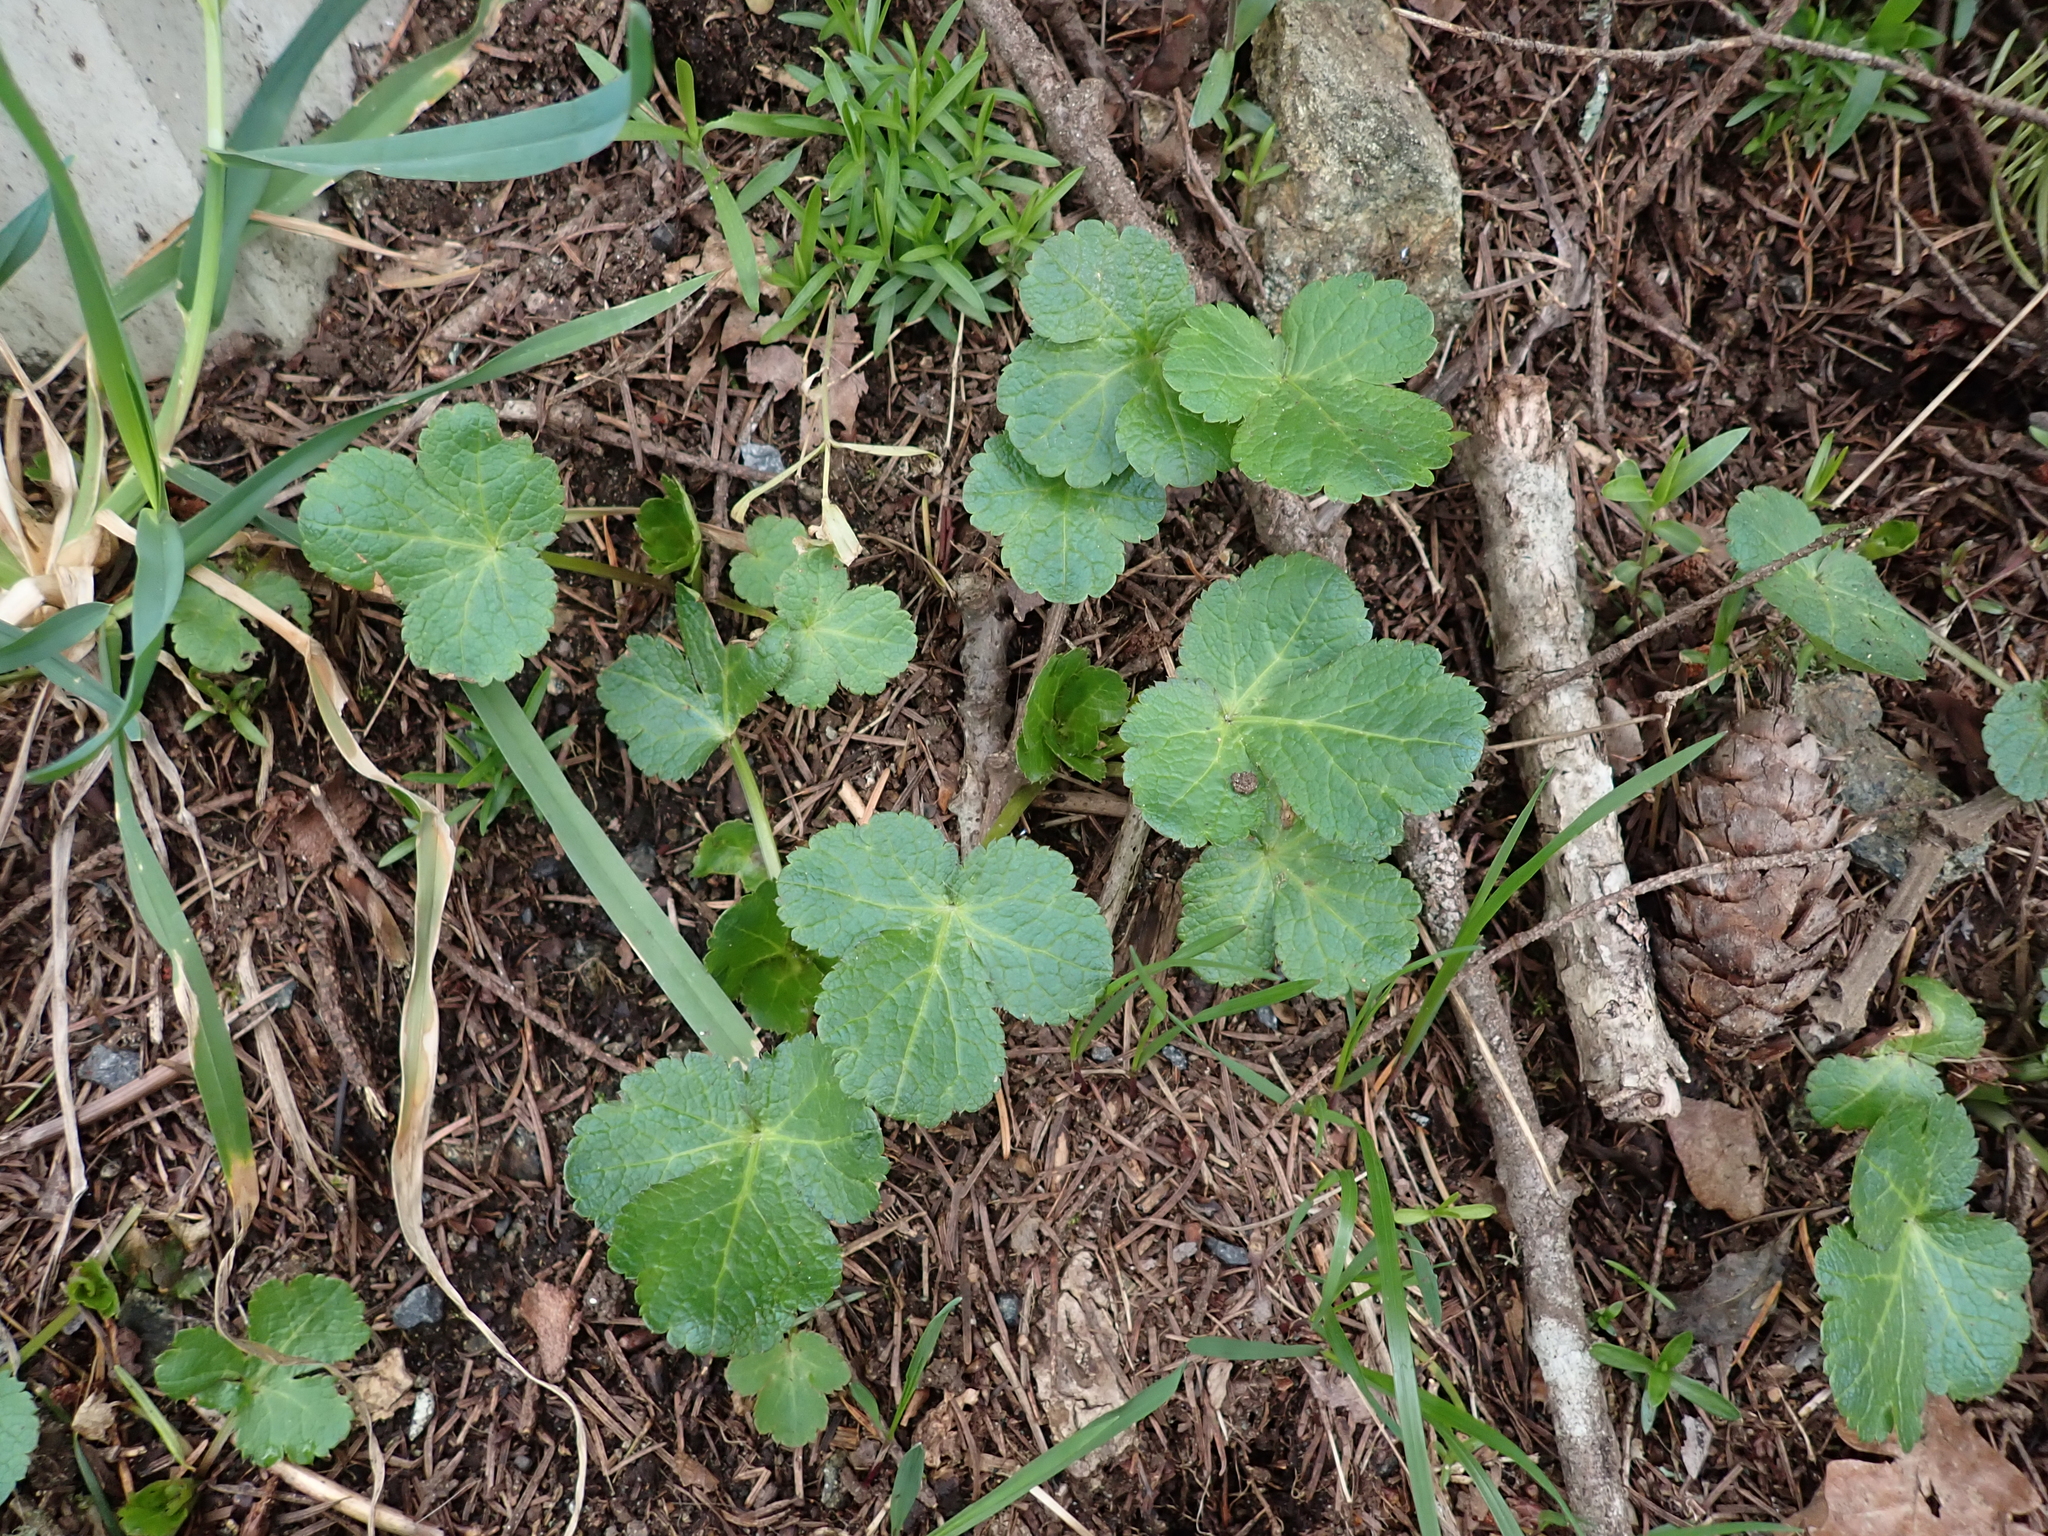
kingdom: Plantae
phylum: Tracheophyta
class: Magnoliopsida
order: Apiales
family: Apiaceae
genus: Sanicula
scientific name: Sanicula crassicaulis
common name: Western snakeroot
